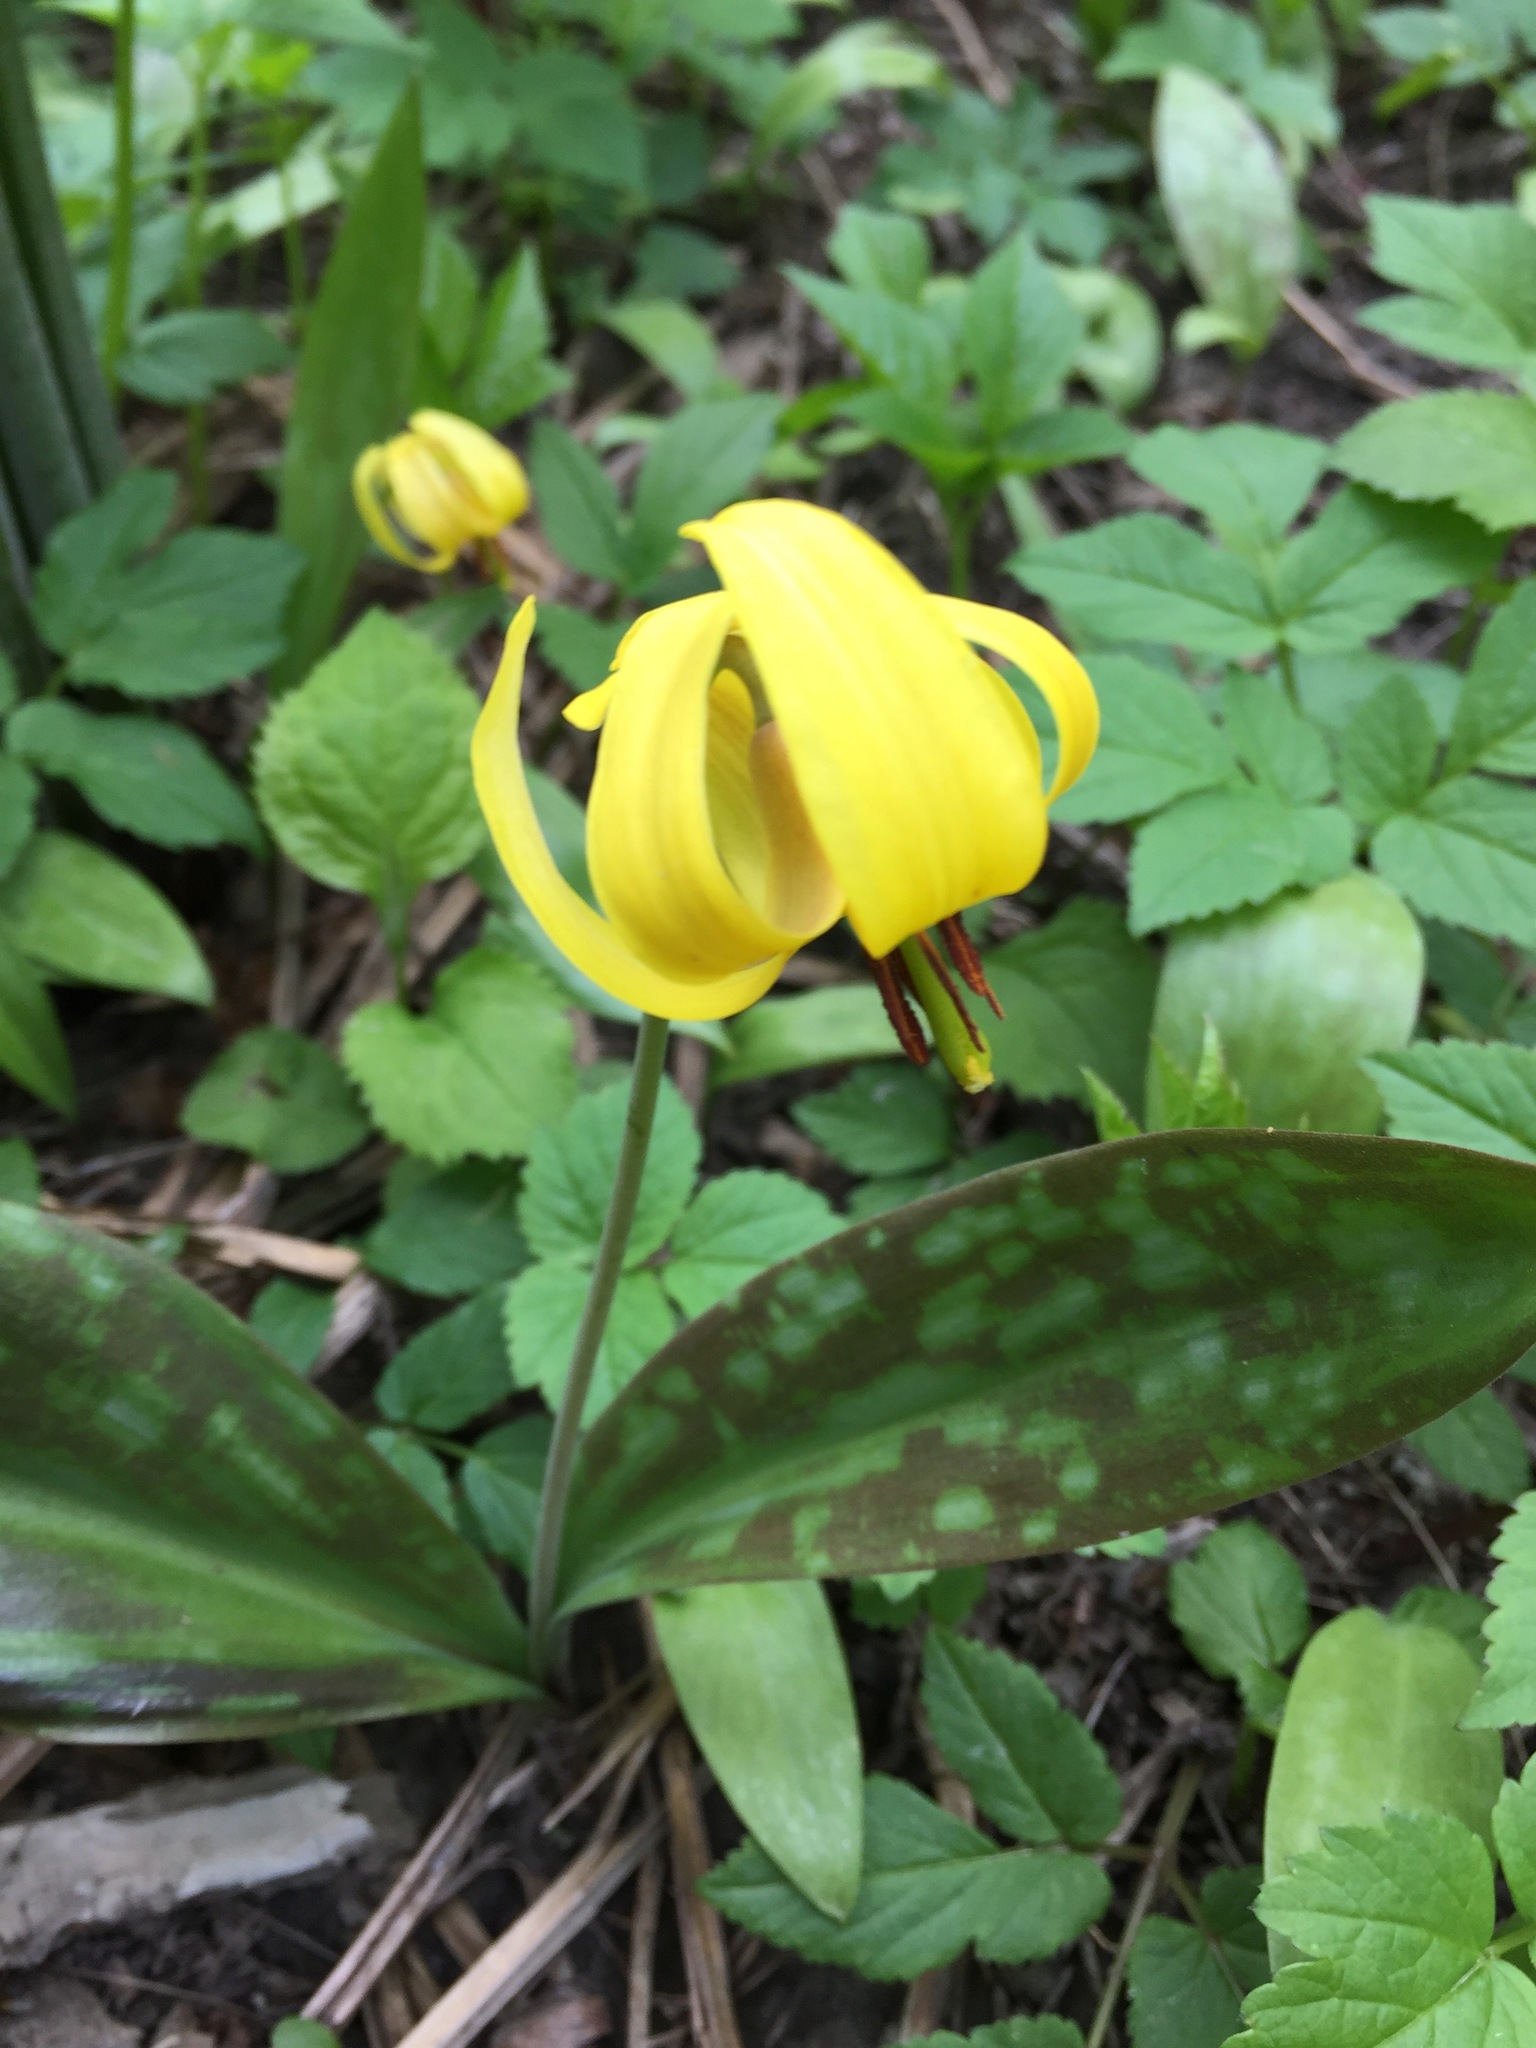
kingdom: Plantae
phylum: Tracheophyta
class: Liliopsida
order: Liliales
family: Liliaceae
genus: Erythronium
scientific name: Erythronium americanum
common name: Yellow adder's-tongue
